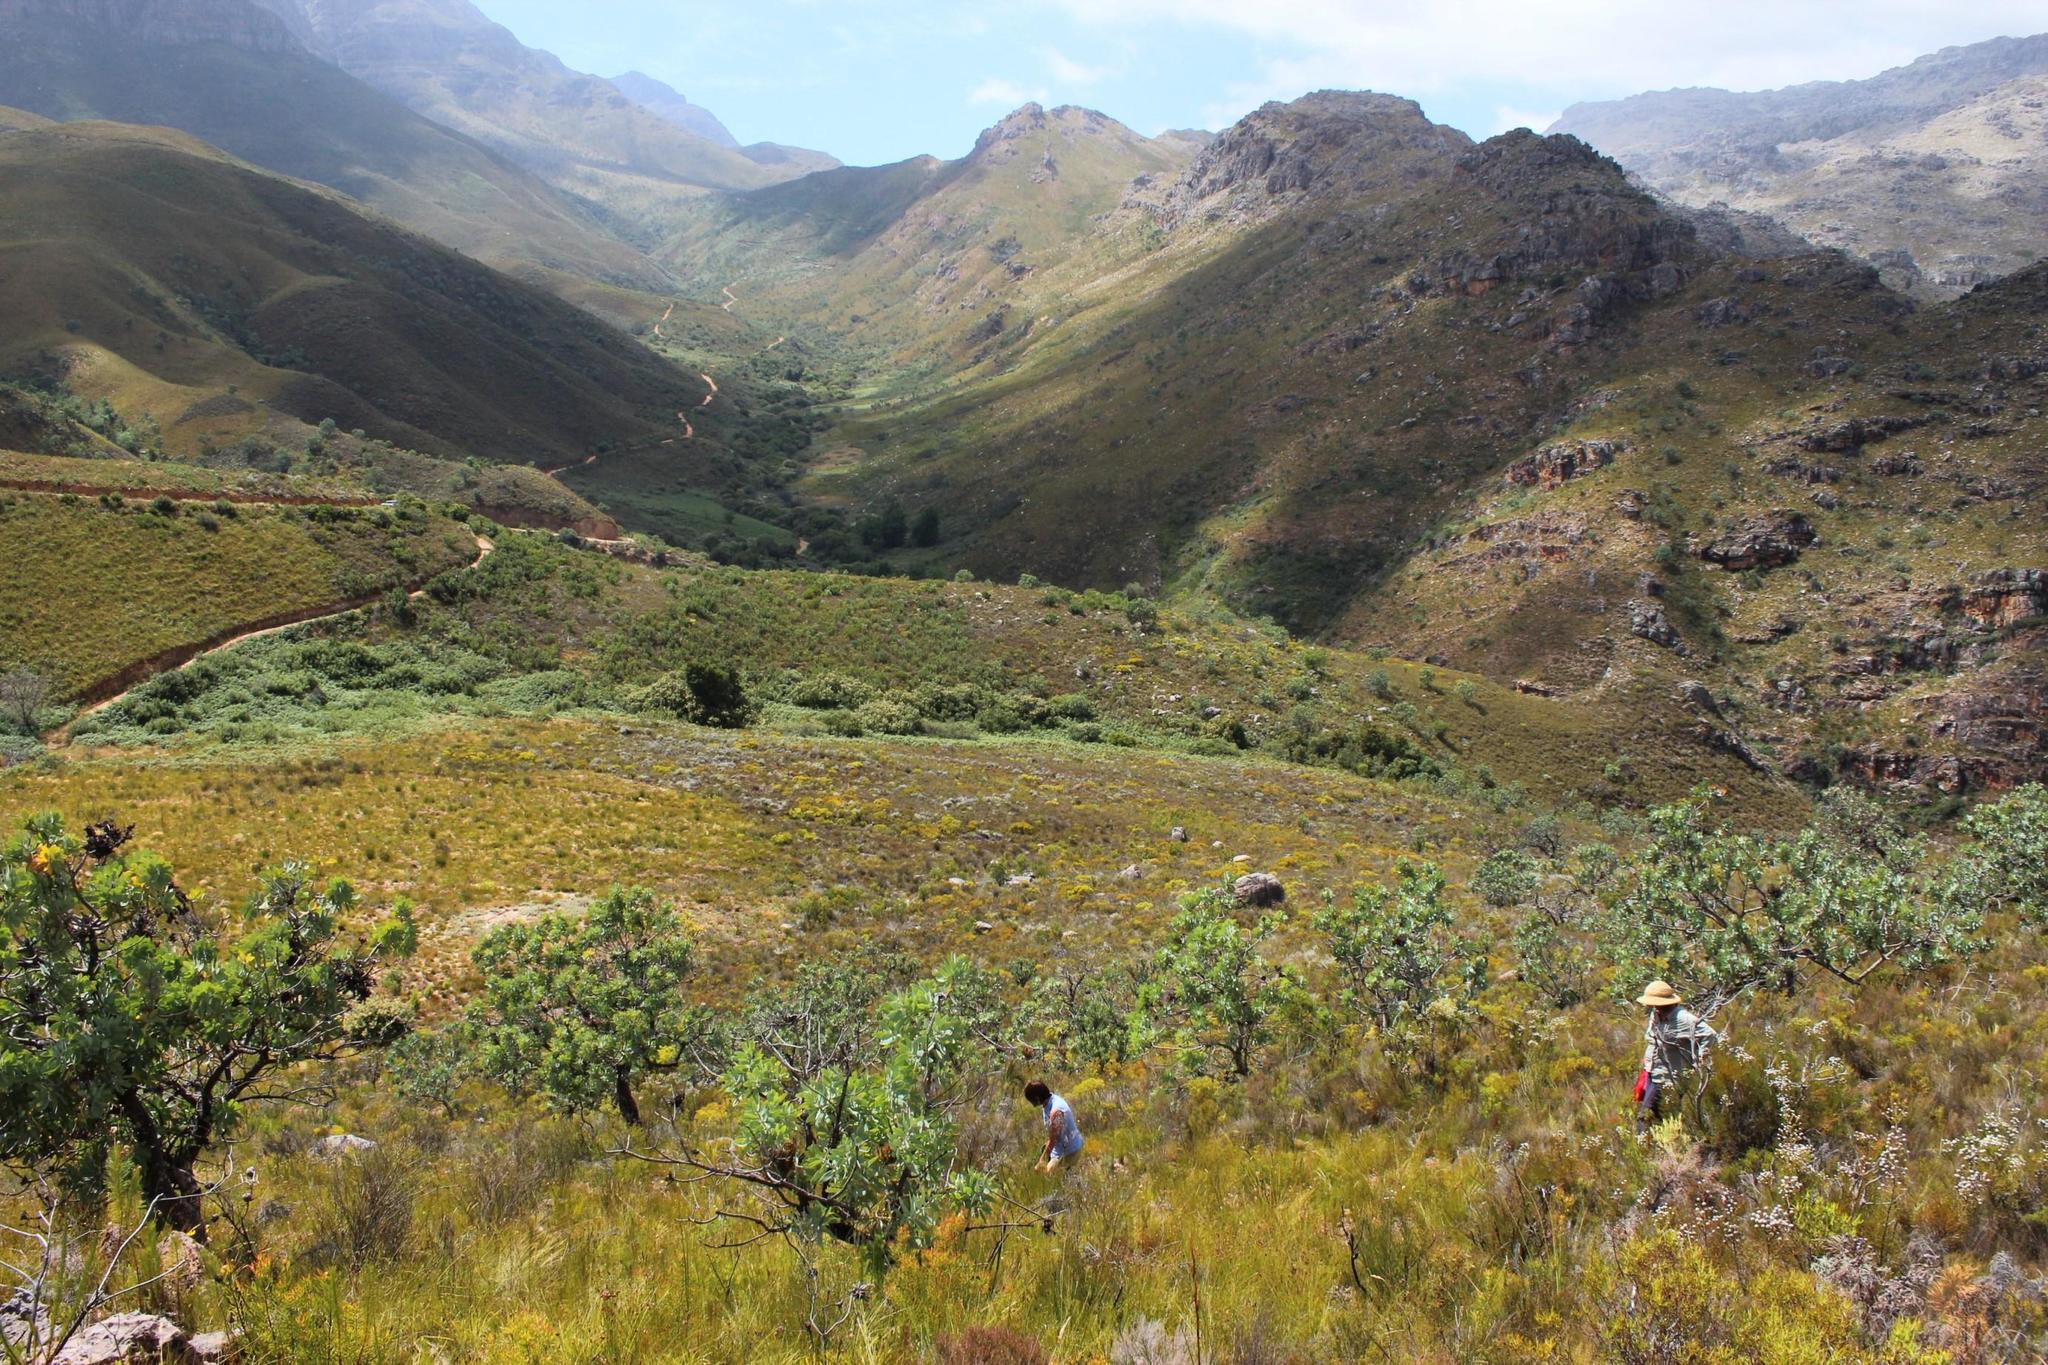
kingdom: Plantae
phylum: Tracheophyta
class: Magnoliopsida
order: Proteales
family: Proteaceae
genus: Protea
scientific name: Protea nitida
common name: Tree protea
